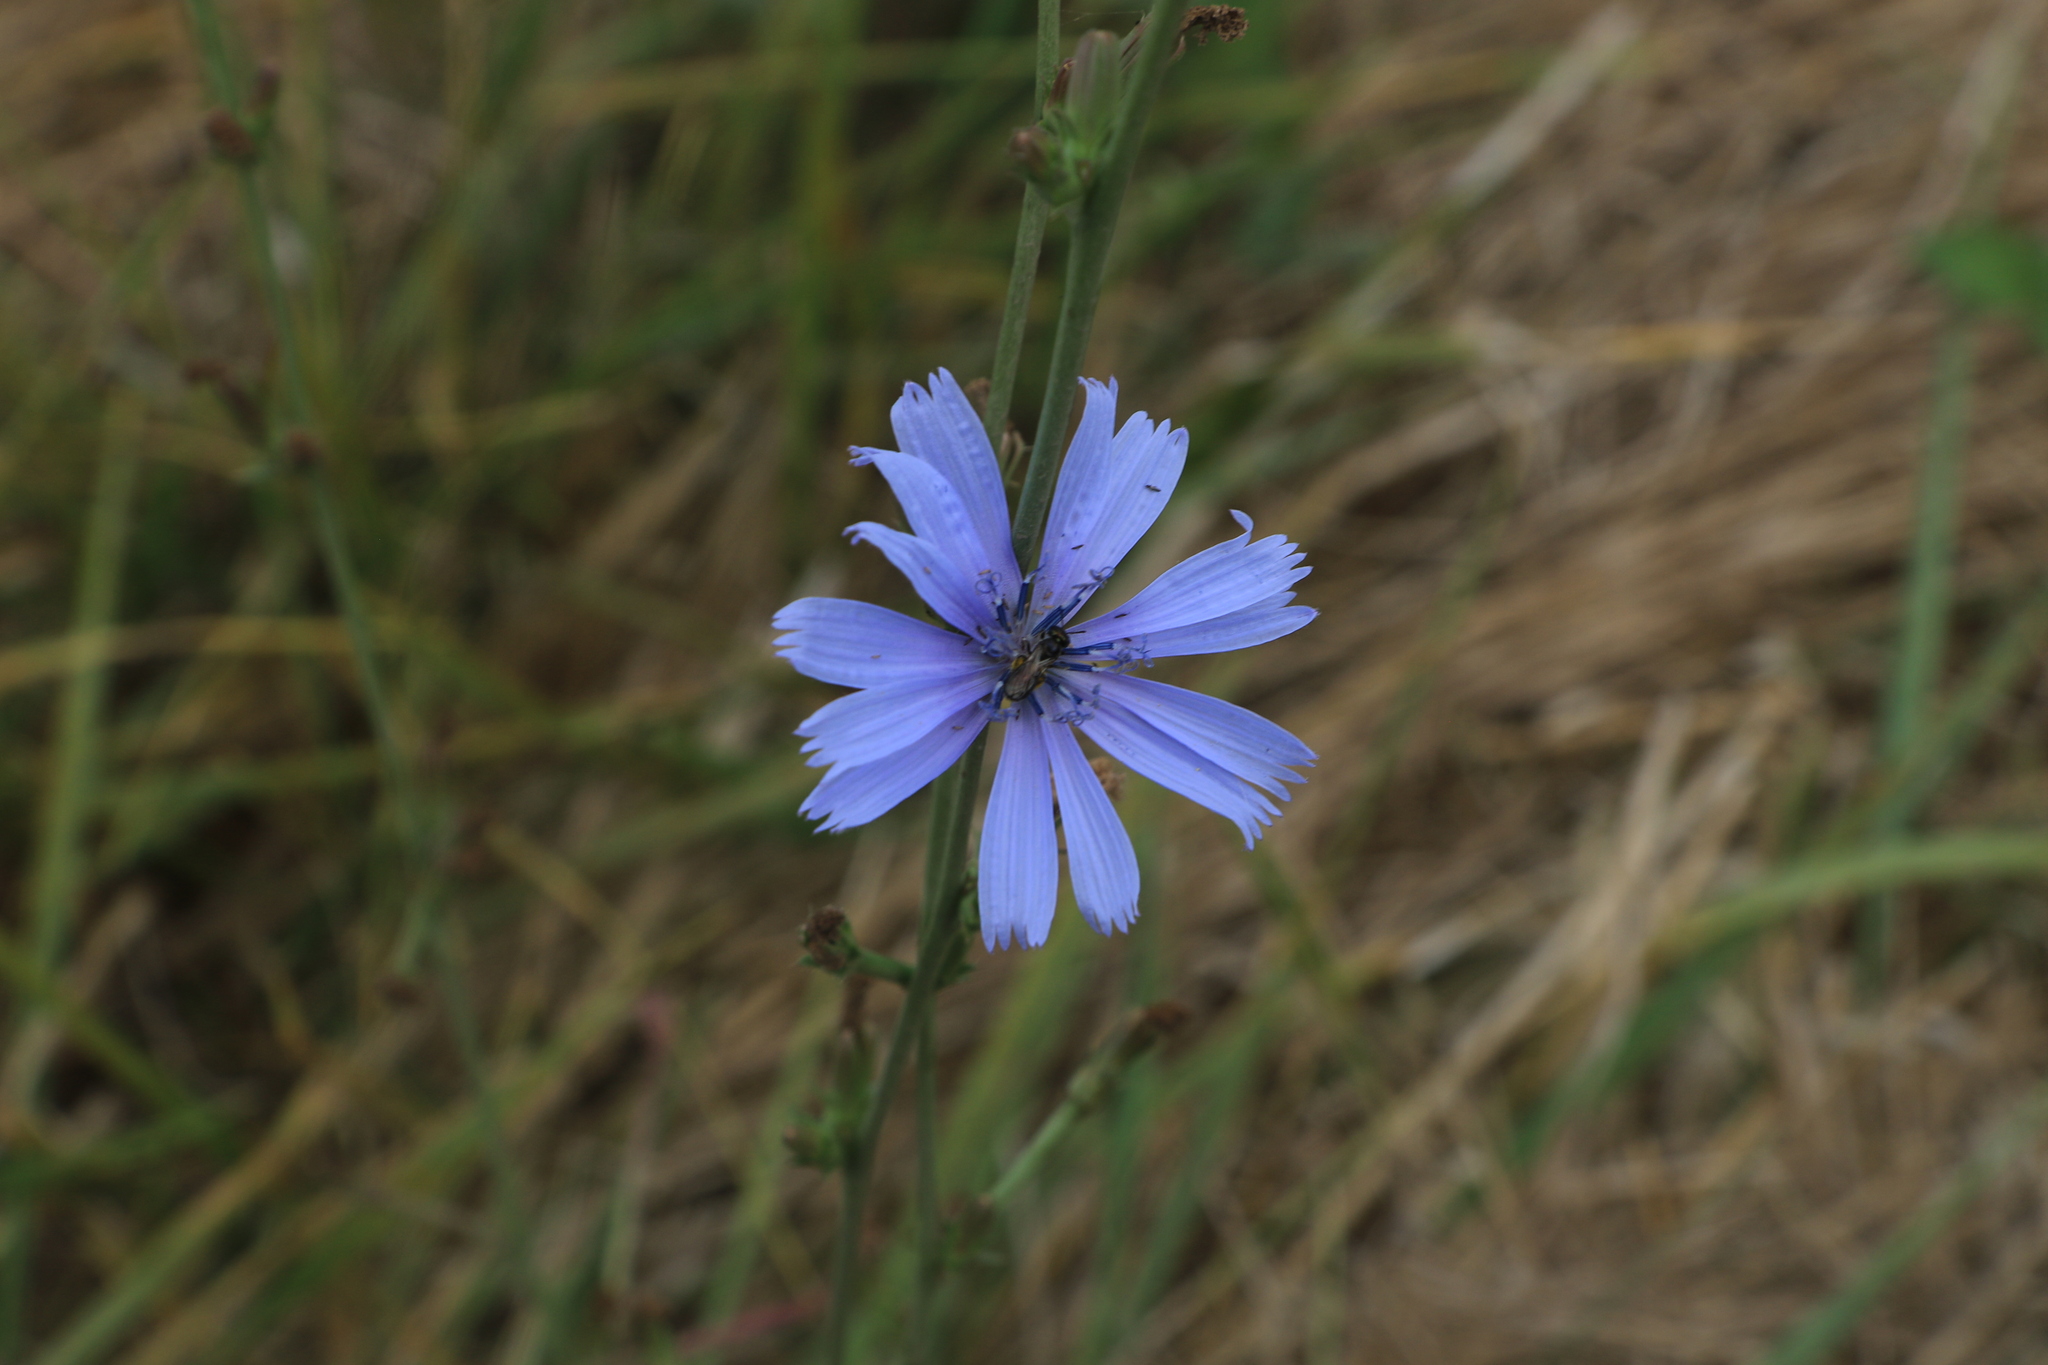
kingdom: Plantae
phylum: Tracheophyta
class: Magnoliopsida
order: Asterales
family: Asteraceae
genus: Cichorium
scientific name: Cichorium intybus
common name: Chicory
